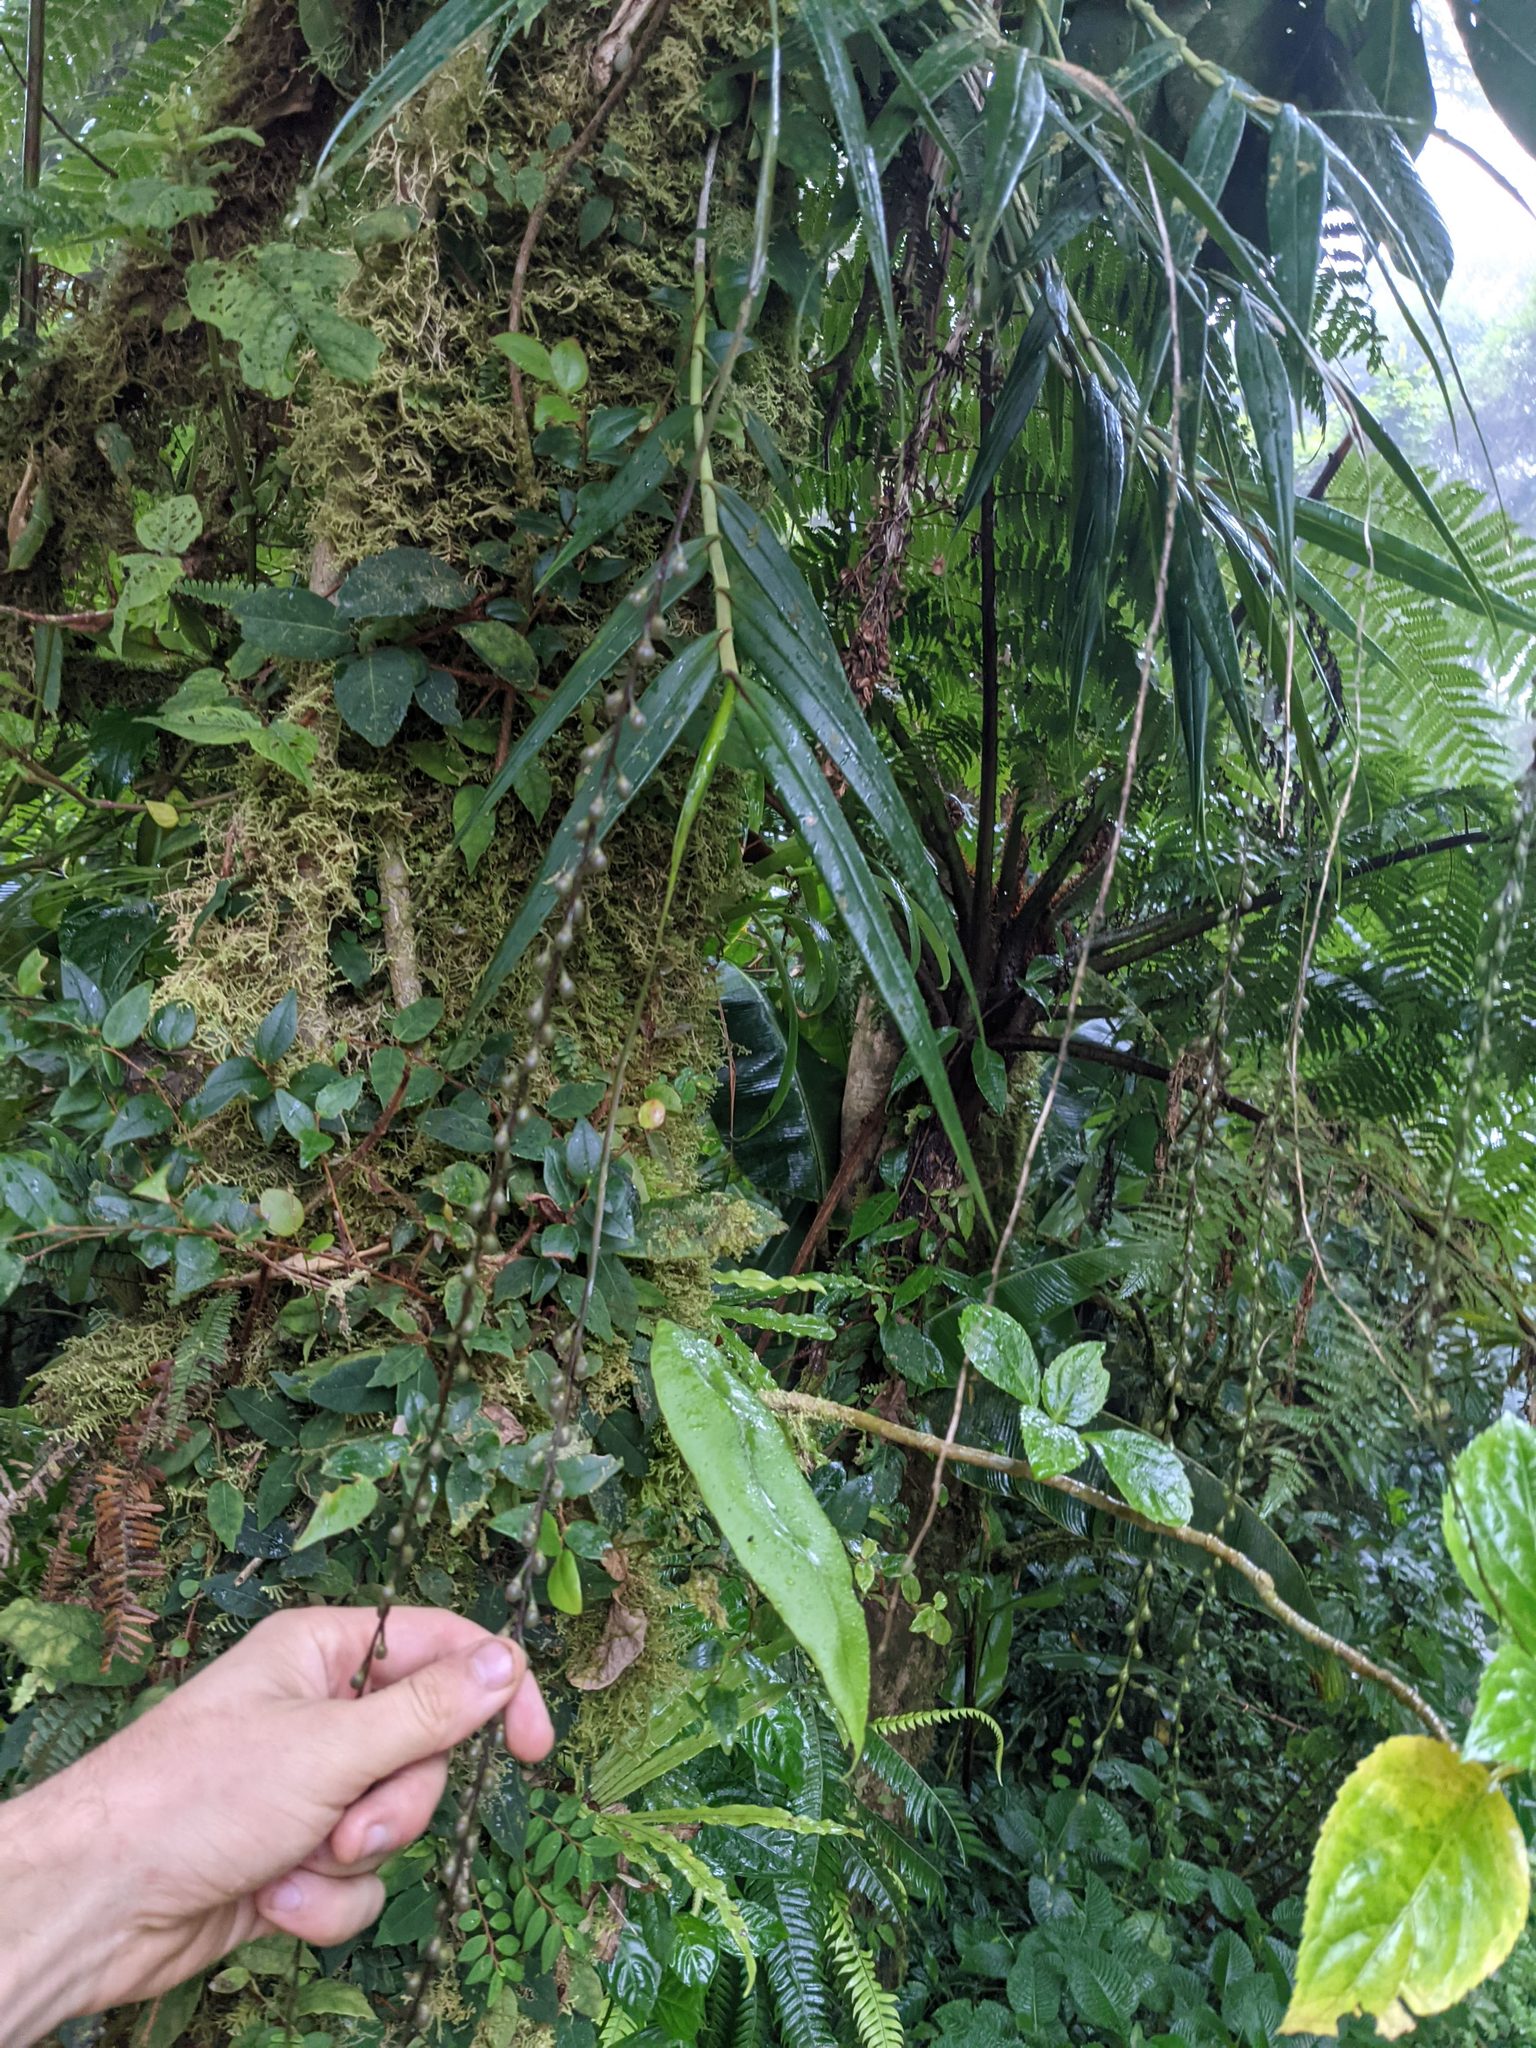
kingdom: Plantae
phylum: Tracheophyta
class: Liliopsida
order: Asparagales
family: Orchidaceae
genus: Epidendrum
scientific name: Epidendrum laucheanum
